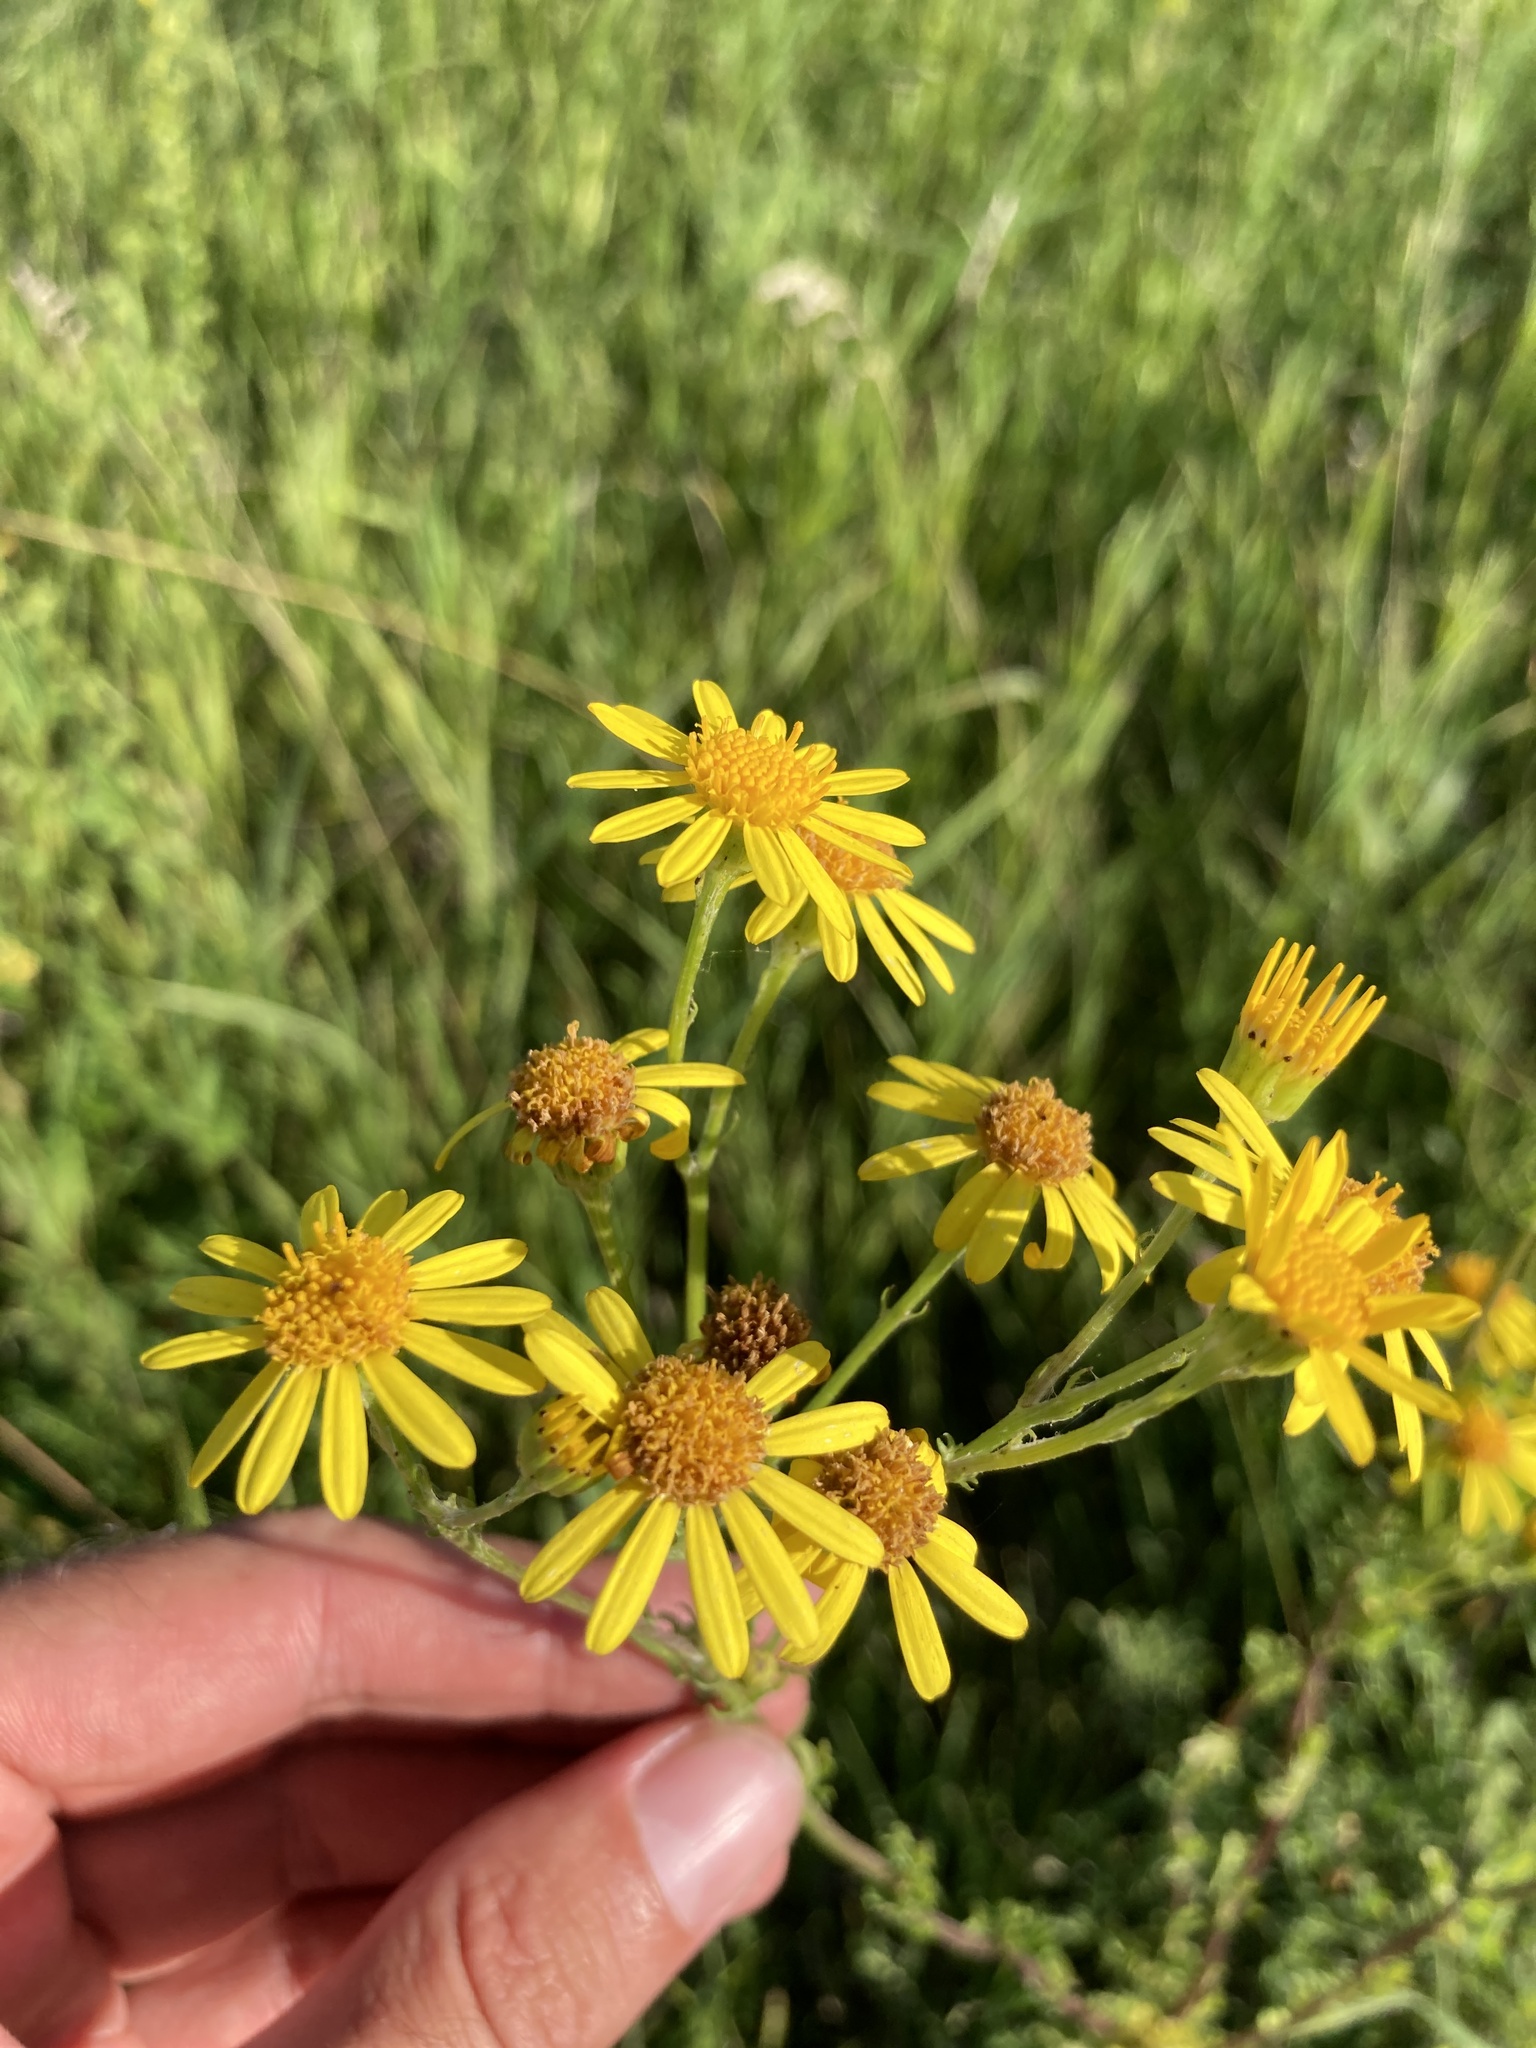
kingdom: Plantae
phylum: Tracheophyta
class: Magnoliopsida
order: Asterales
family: Asteraceae
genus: Jacobaea
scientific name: Jacobaea vulgaris
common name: Stinking willie
